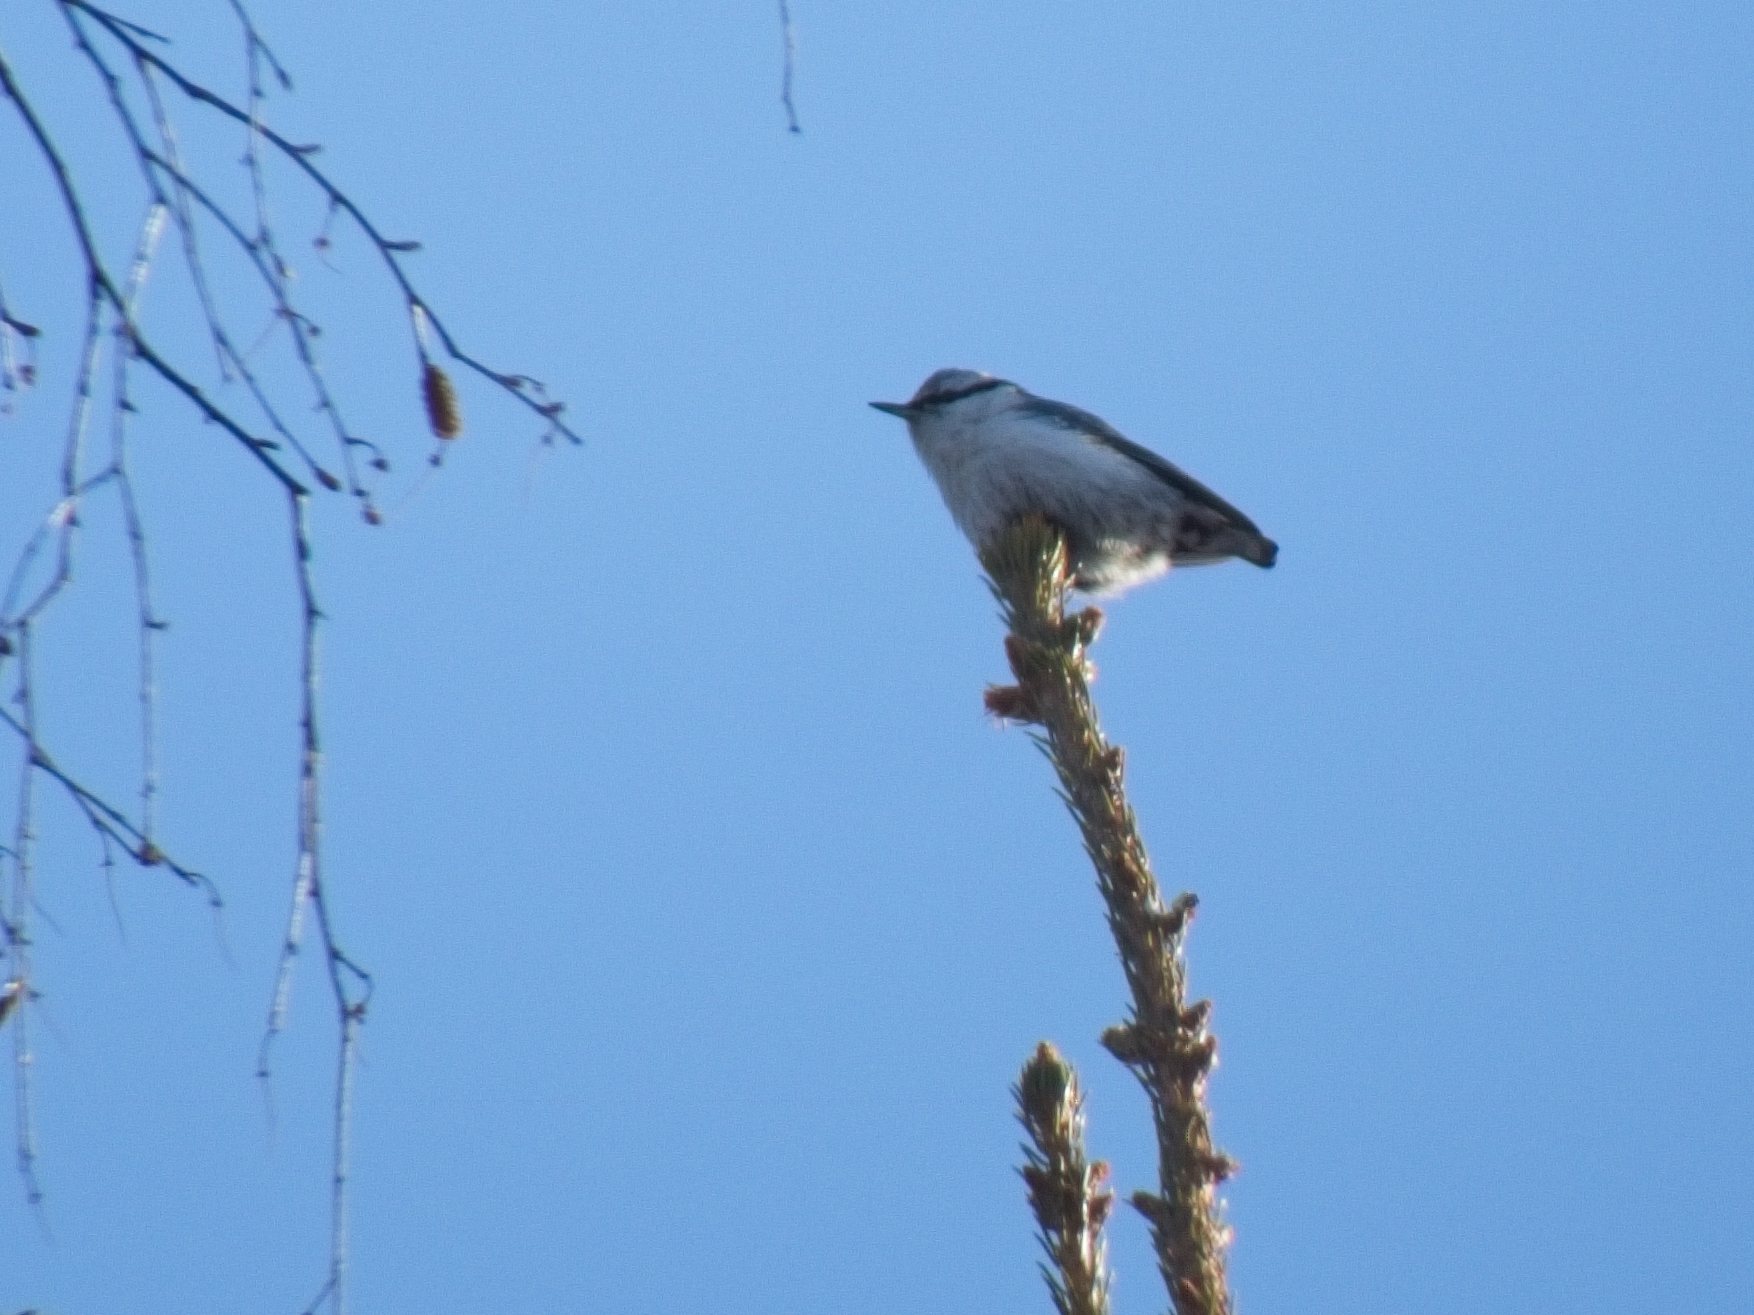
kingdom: Animalia
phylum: Chordata
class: Aves
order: Passeriformes
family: Sittidae
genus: Sitta
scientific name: Sitta europaea
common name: Eurasian nuthatch
